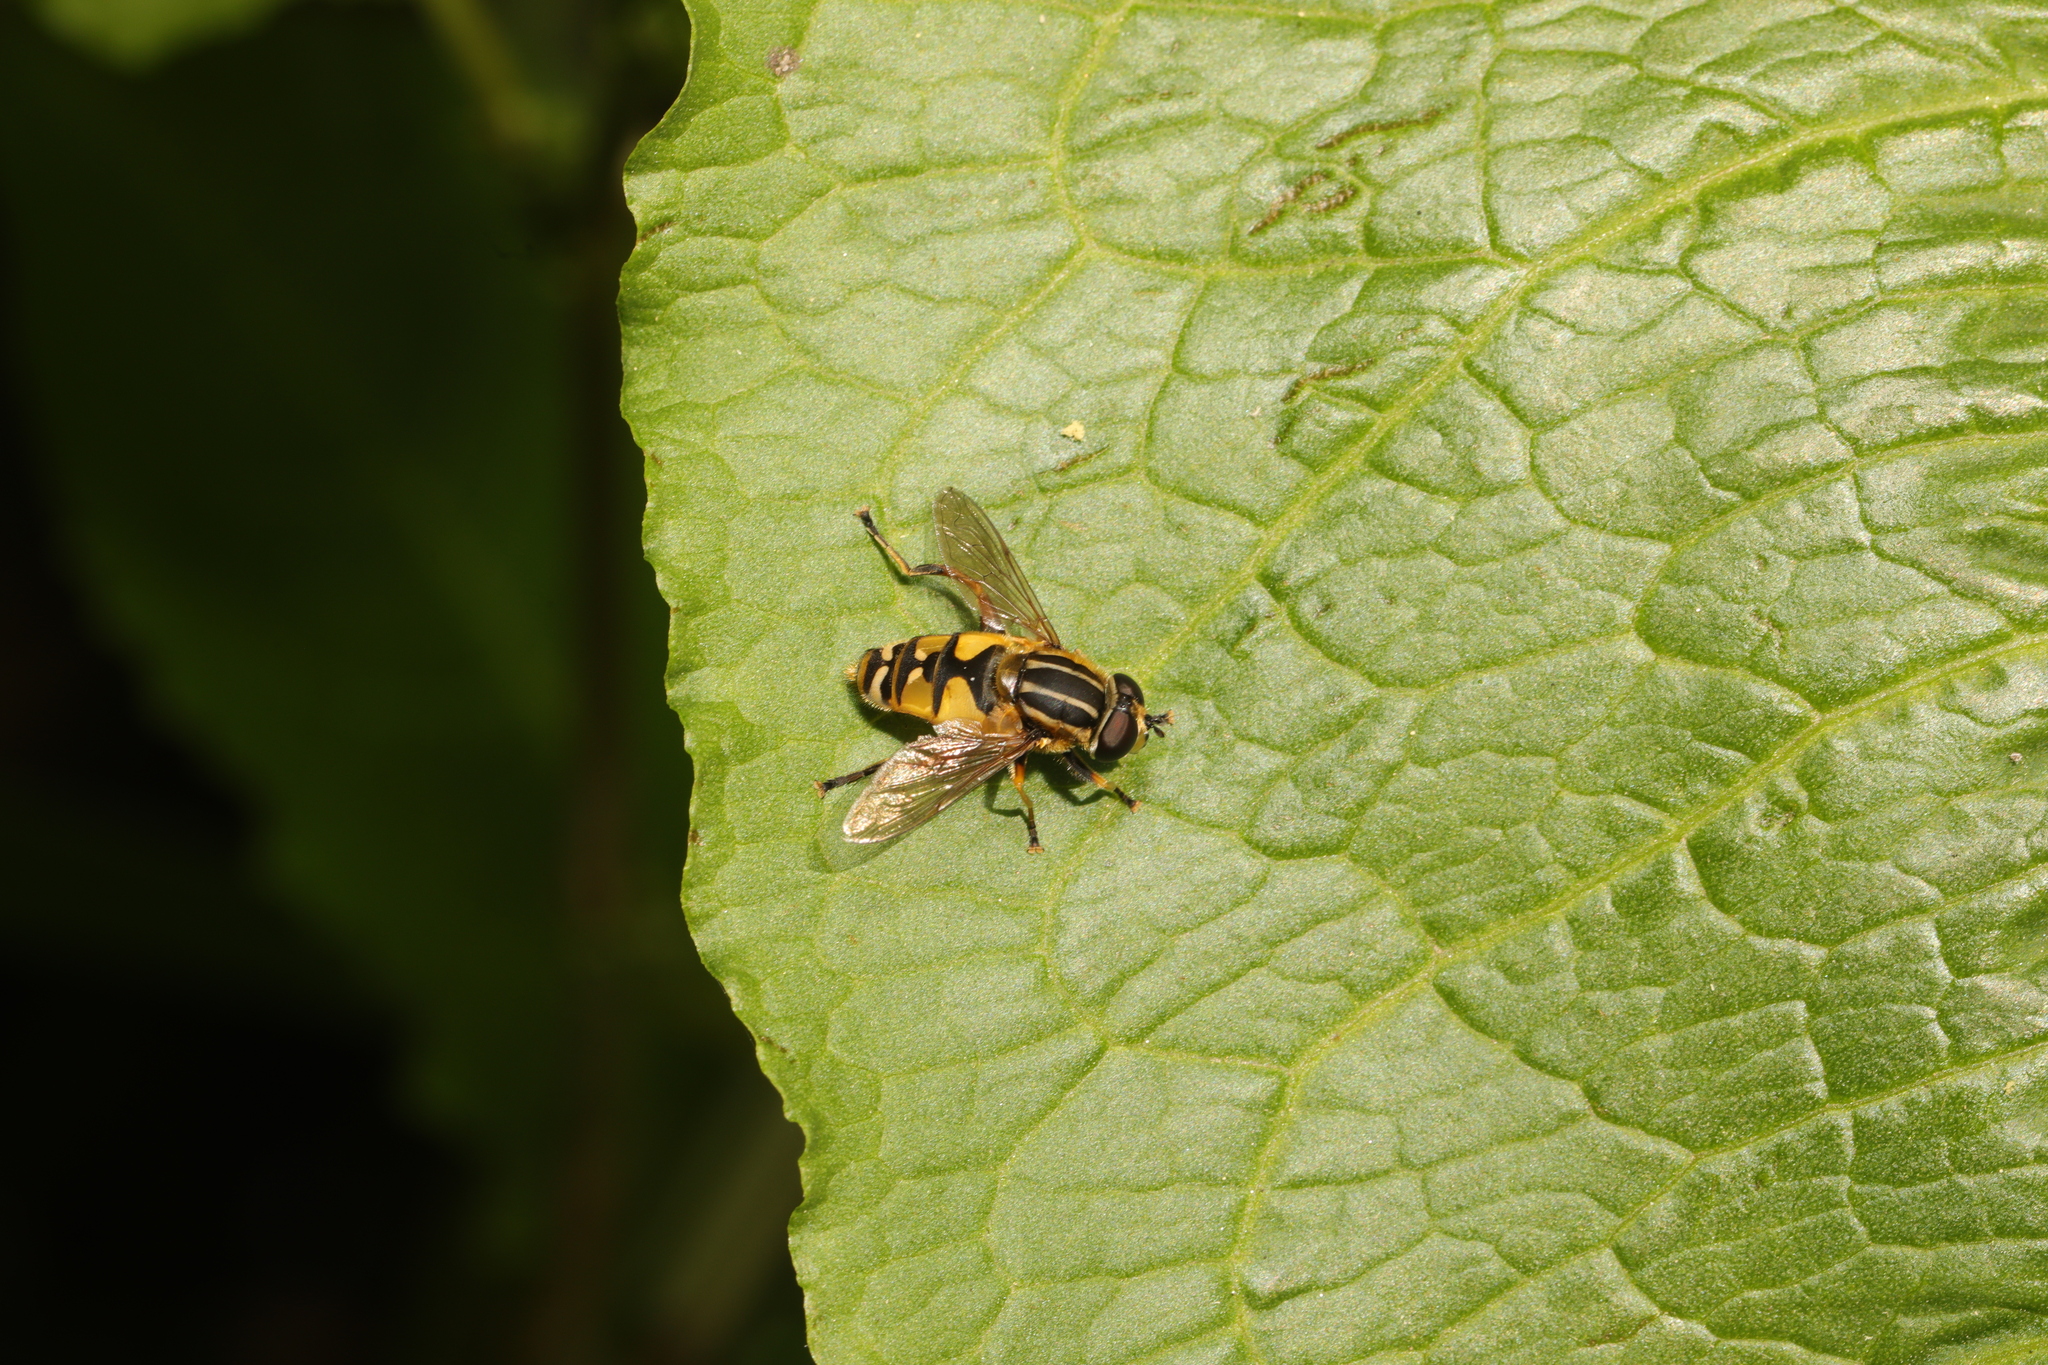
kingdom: Animalia
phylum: Arthropoda
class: Insecta
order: Diptera
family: Syrphidae
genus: Helophilus
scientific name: Helophilus pendulus
